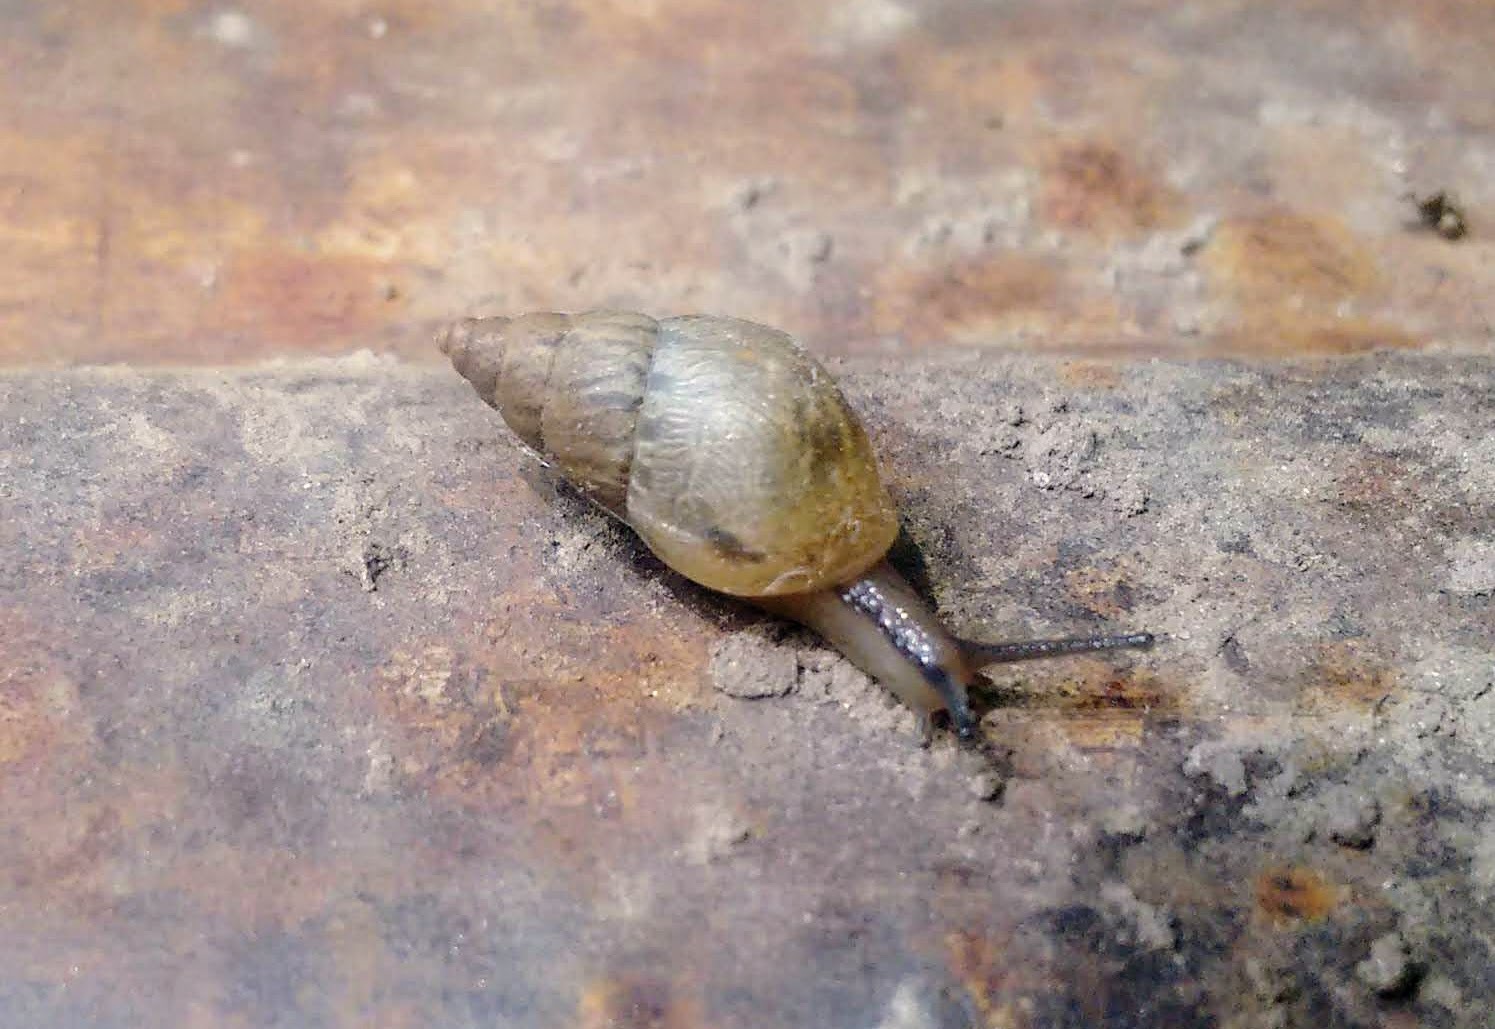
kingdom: Animalia
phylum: Mollusca
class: Gastropoda
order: Stylommatophora
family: Bulimulidae
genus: Bulimulus
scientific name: Bulimulus bonariensis
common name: Snail
